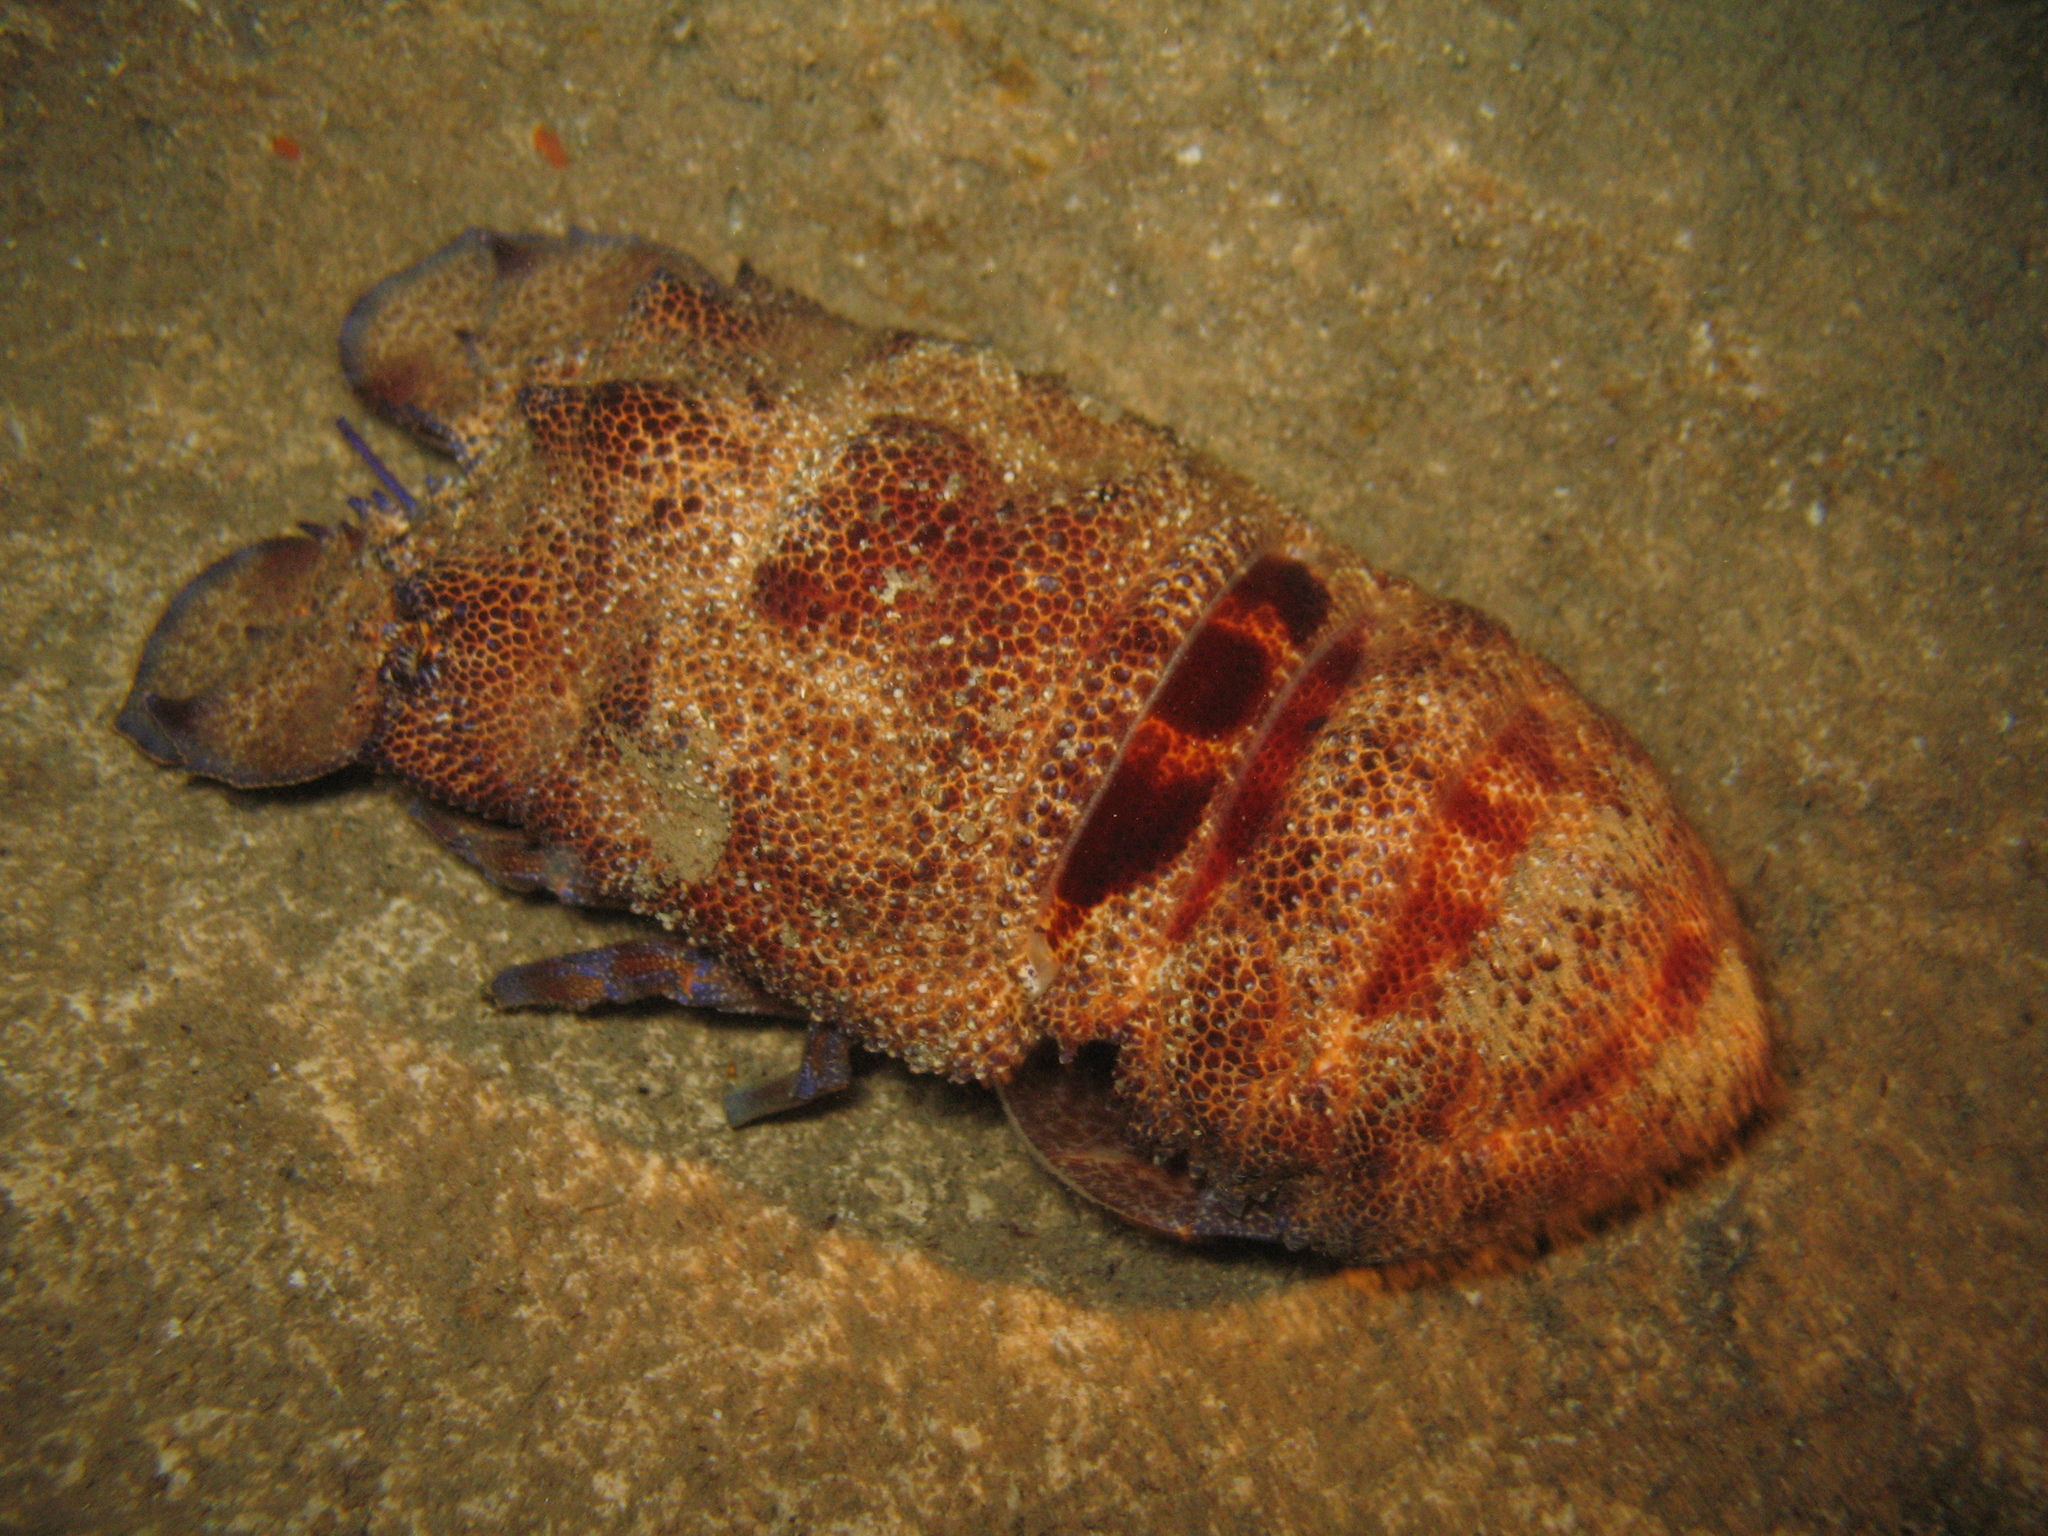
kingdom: Animalia
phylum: Arthropoda
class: Malacostraca
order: Decapoda
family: Scyllaridae
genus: Scyllarides
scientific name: Scyllarides latus
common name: Mediterranean slipper lobster
